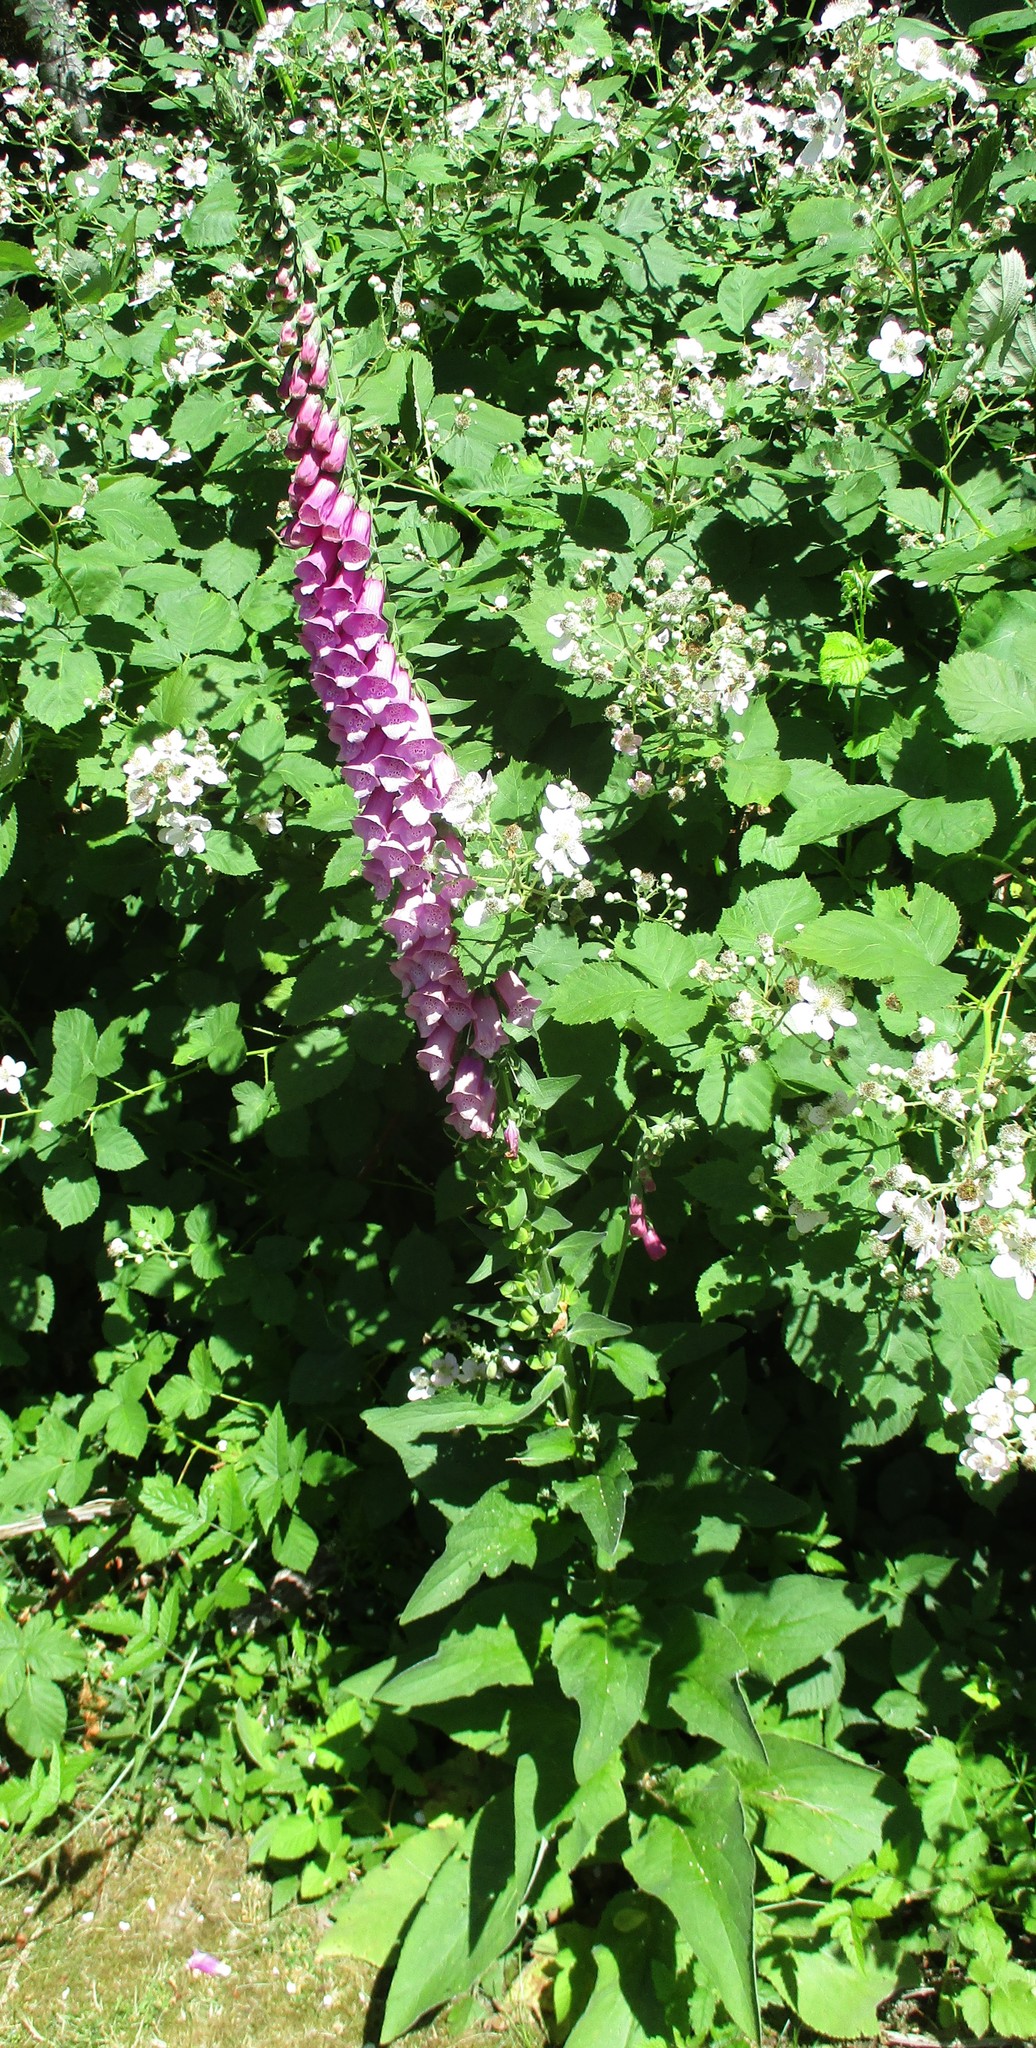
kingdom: Plantae
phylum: Tracheophyta
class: Magnoliopsida
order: Lamiales
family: Plantaginaceae
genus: Digitalis
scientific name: Digitalis purpurea
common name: Foxglove
